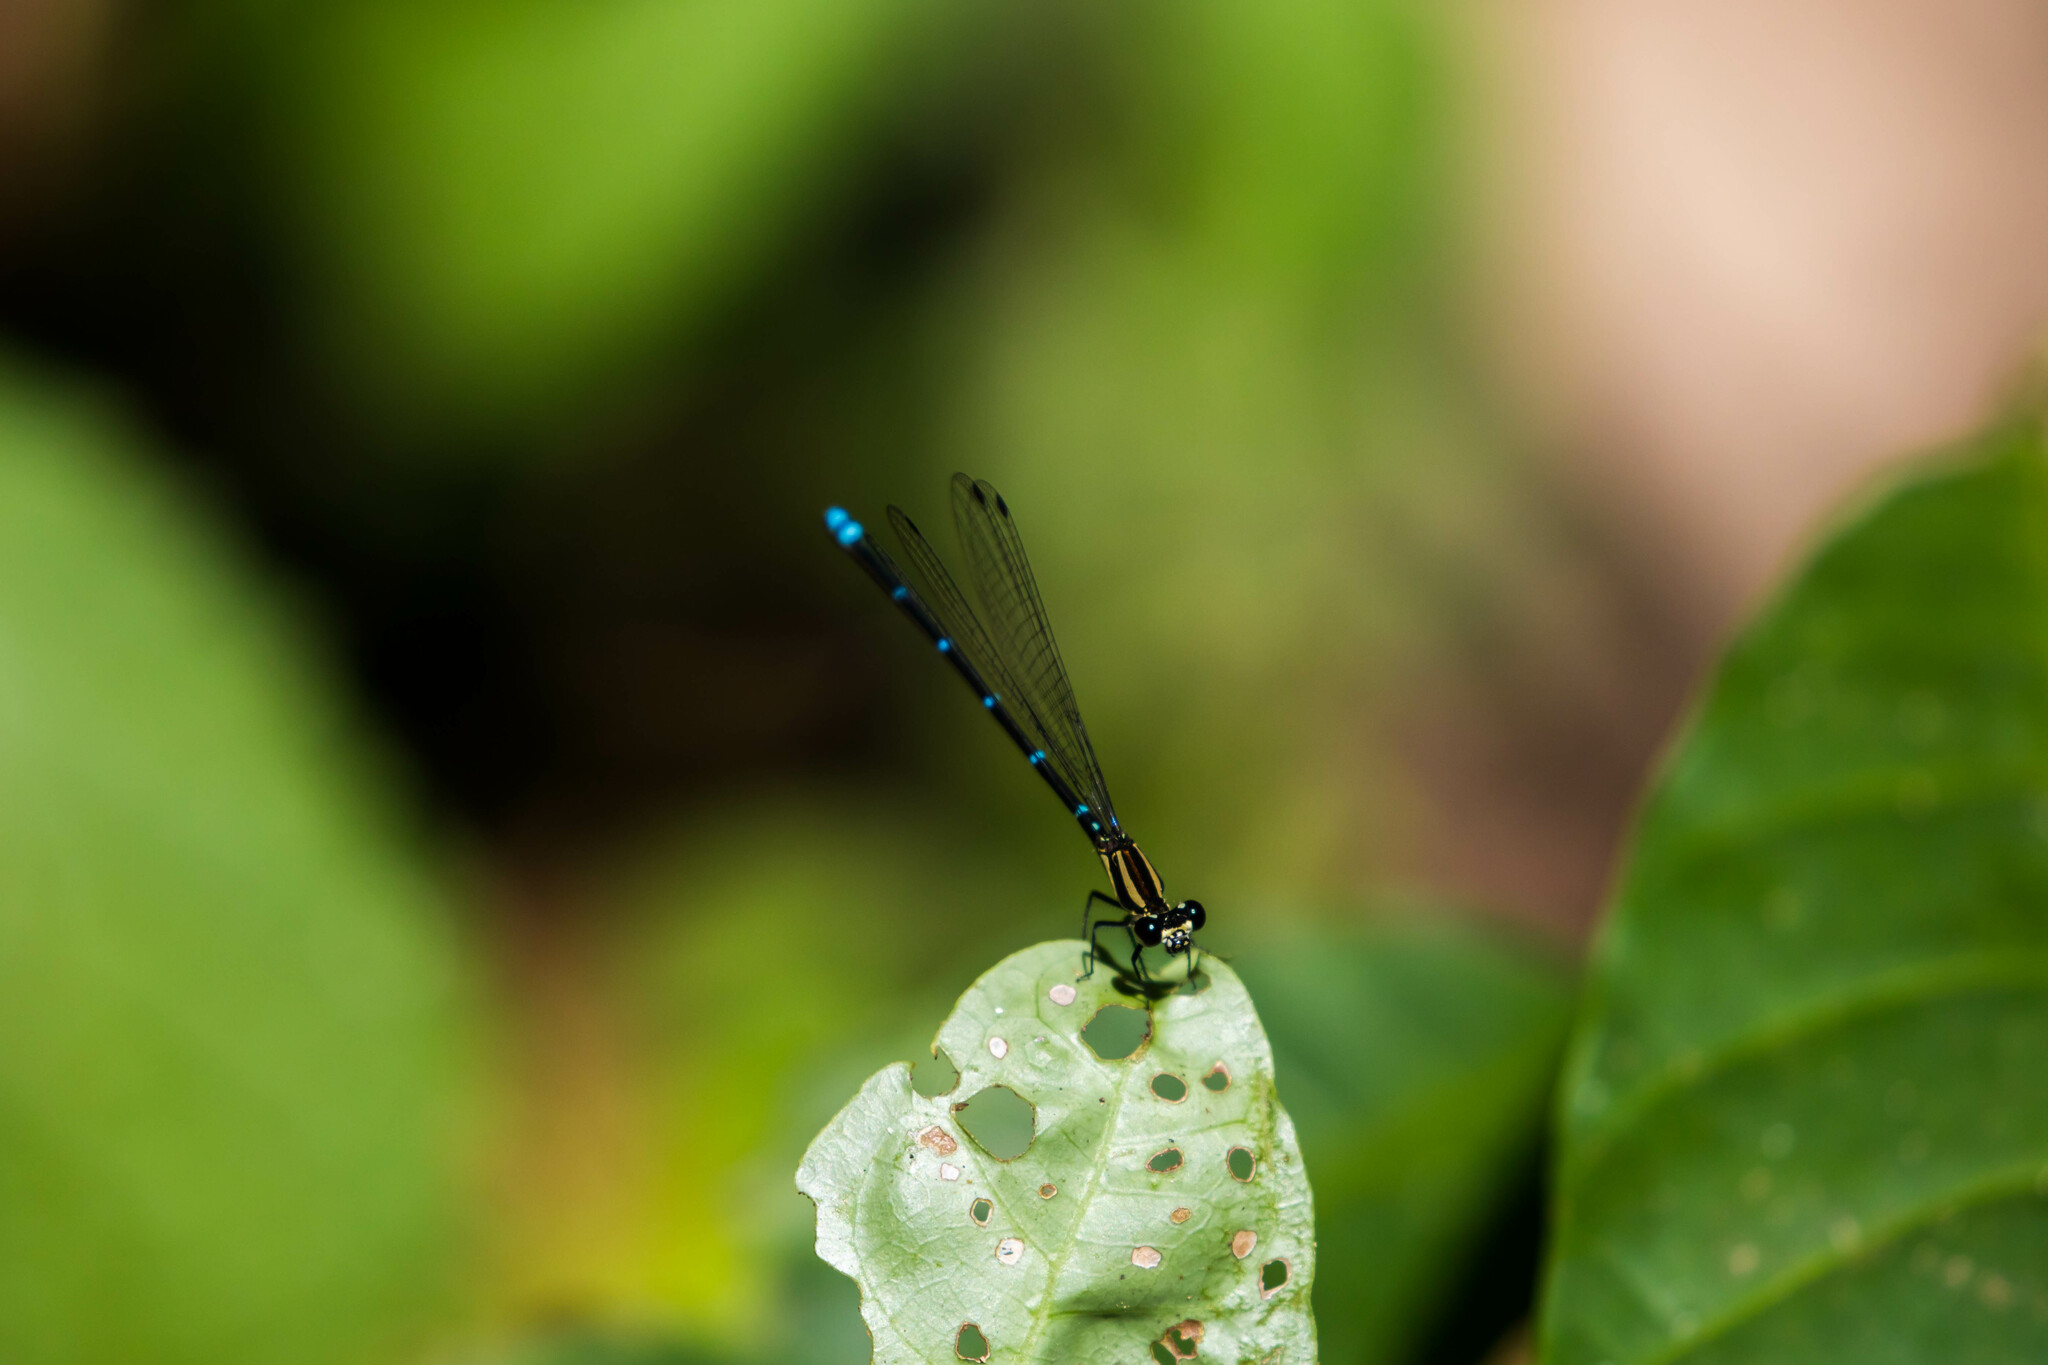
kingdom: Animalia
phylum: Arthropoda
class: Insecta
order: Odonata
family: Coenagrionidae
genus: Argia
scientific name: Argia oculata
